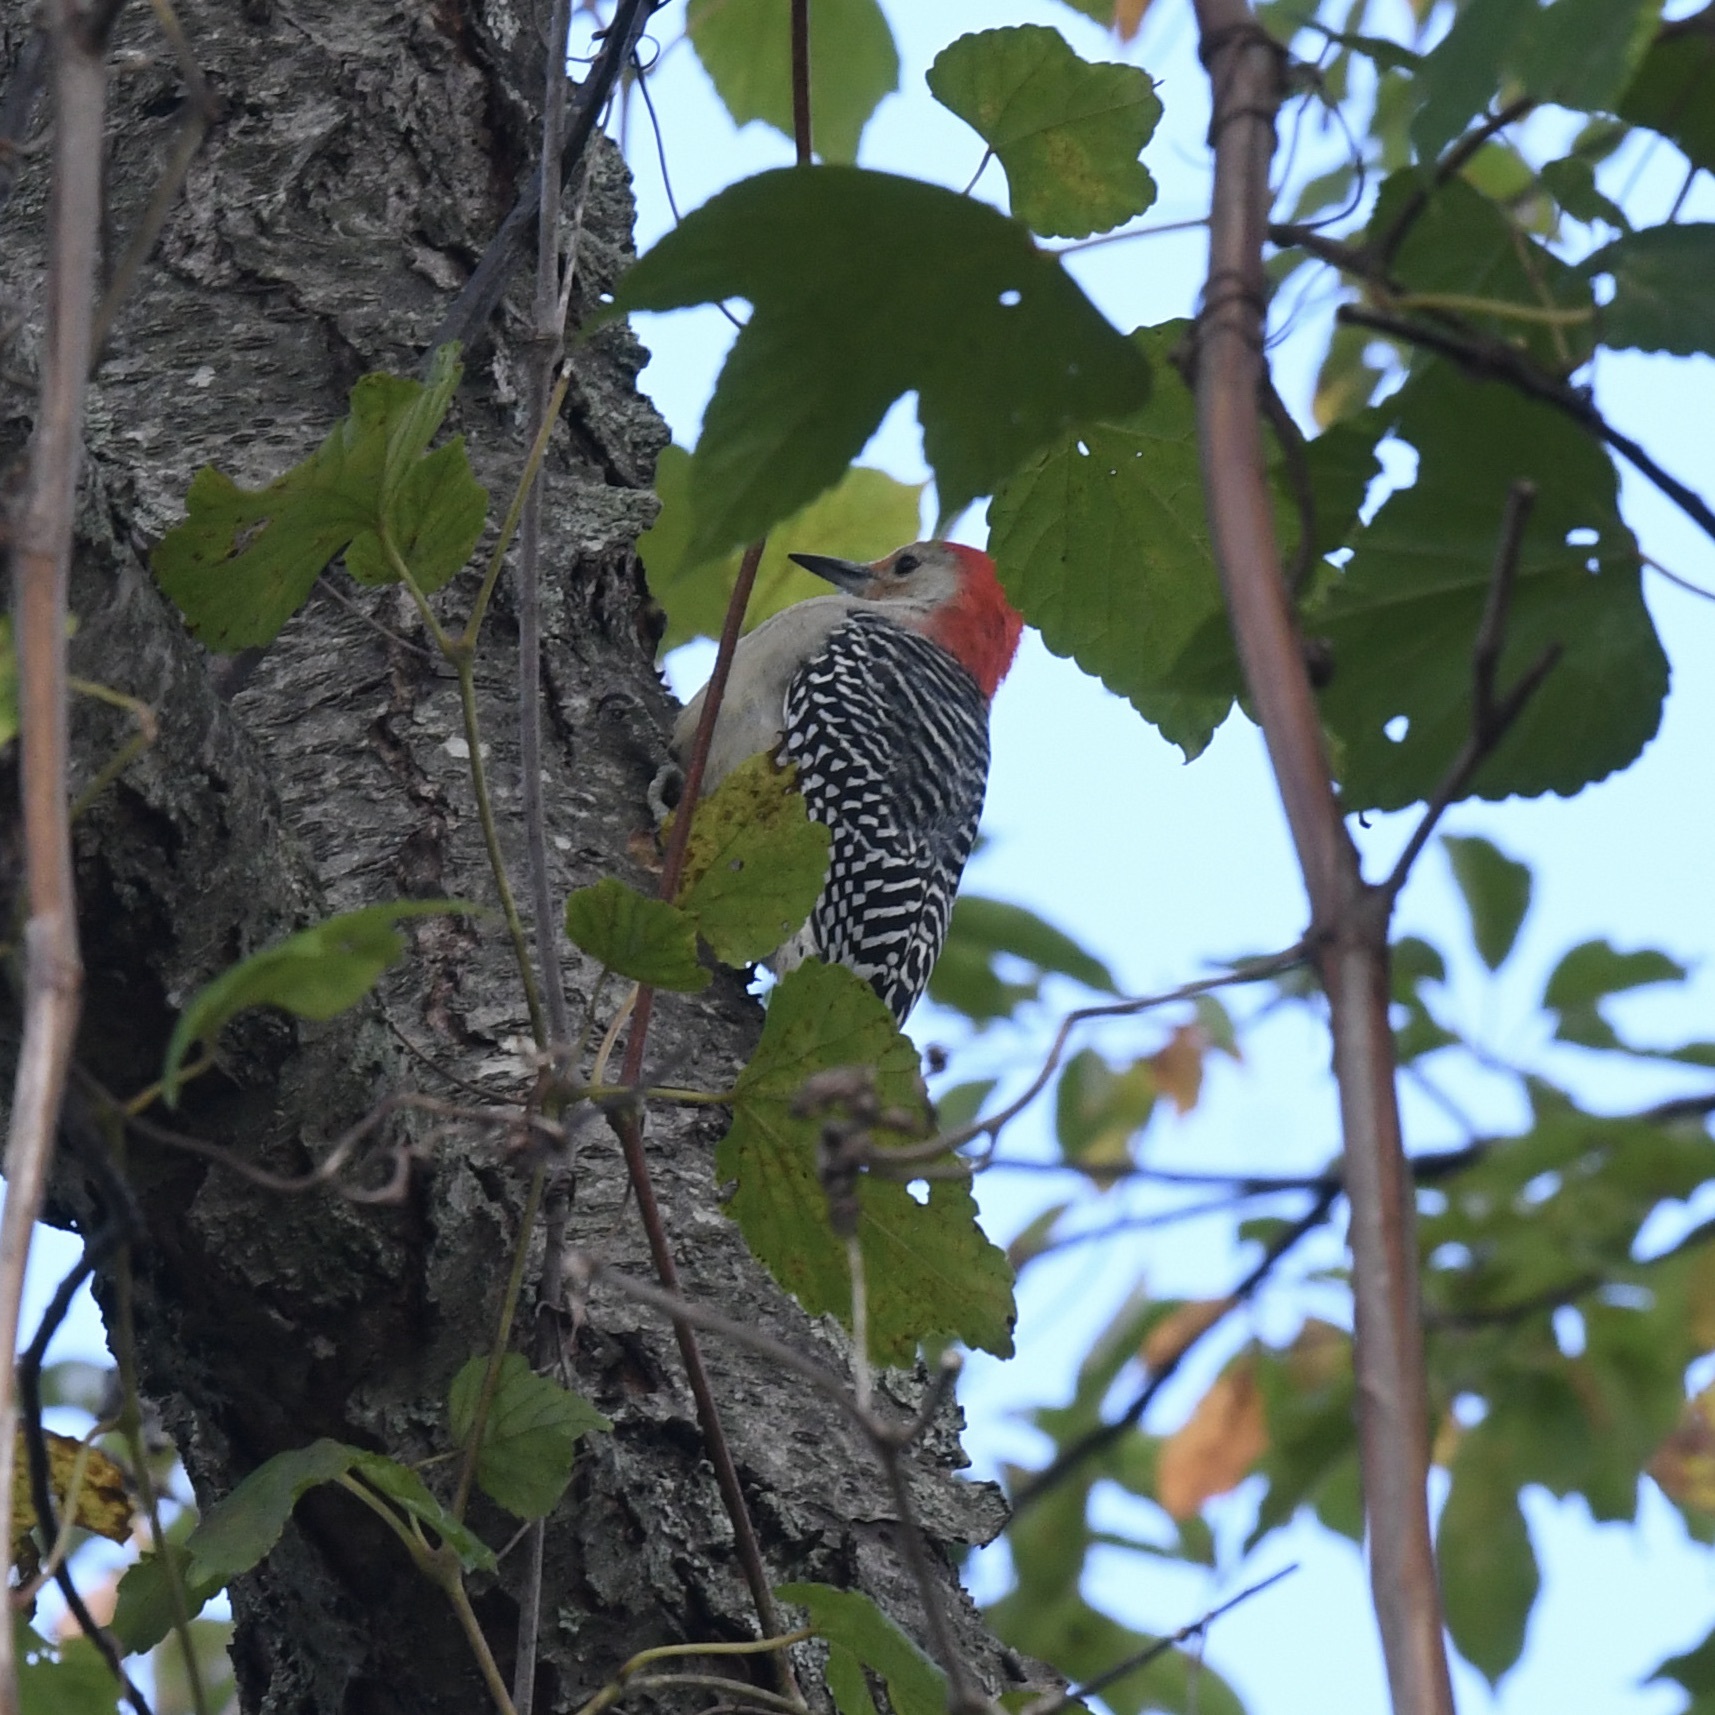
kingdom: Animalia
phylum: Chordata
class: Aves
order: Piciformes
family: Picidae
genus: Melanerpes
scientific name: Melanerpes carolinus
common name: Red-bellied woodpecker
